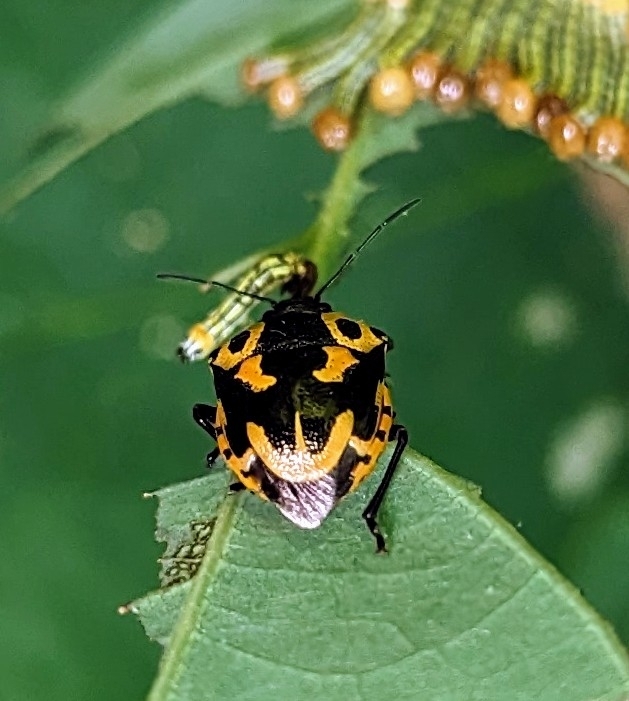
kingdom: Animalia
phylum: Arthropoda
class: Insecta
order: Hemiptera
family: Pentatomidae
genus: Stiretrus
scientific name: Stiretrus anchorago
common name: Anchor stink bug
